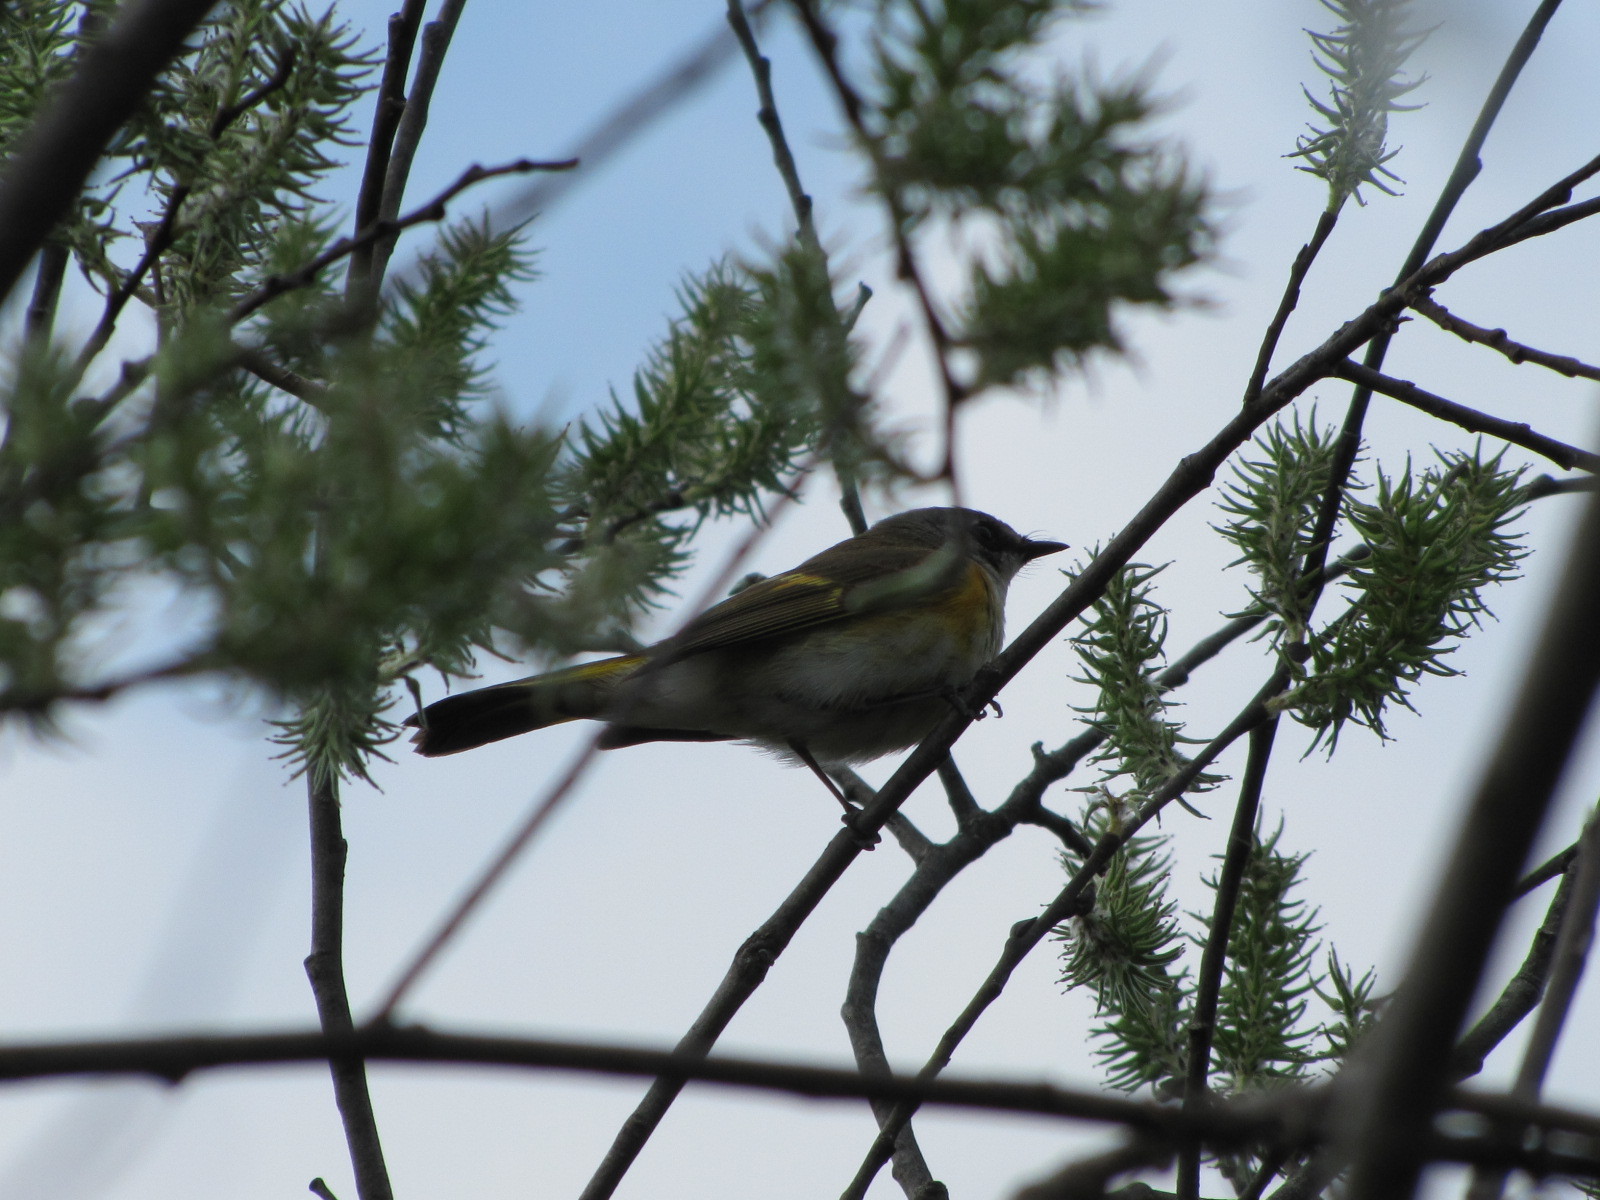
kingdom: Animalia
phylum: Chordata
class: Aves
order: Passeriformes
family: Parulidae
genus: Setophaga
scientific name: Setophaga ruticilla
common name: American redstart
